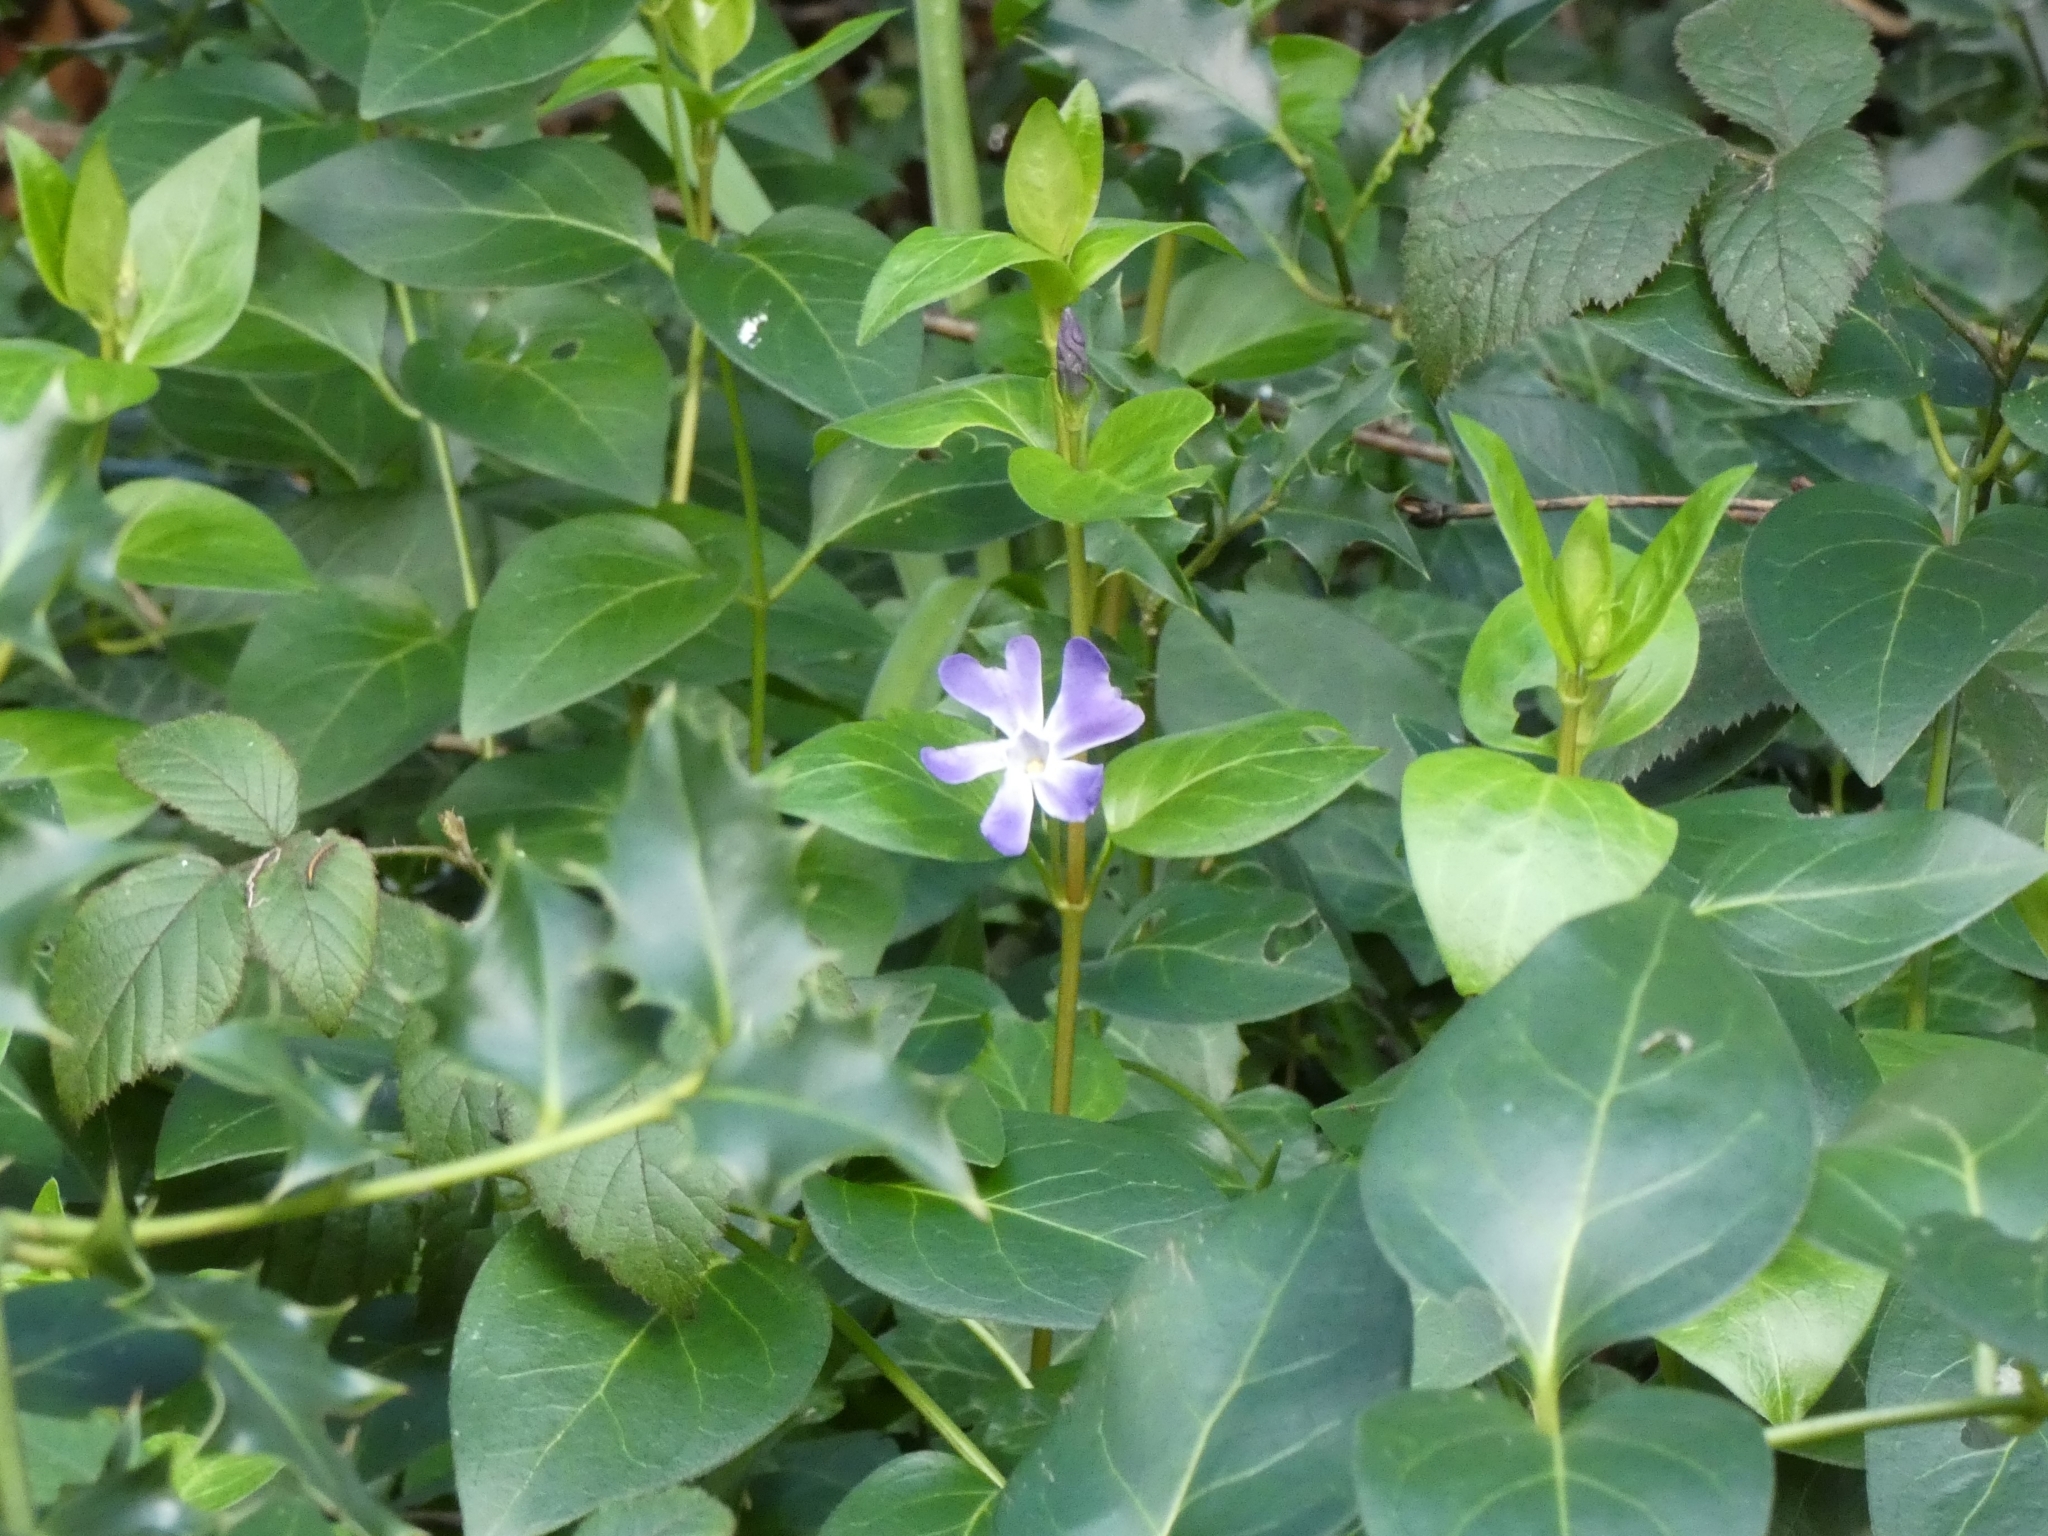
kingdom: Plantae
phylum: Tracheophyta
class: Magnoliopsida
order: Gentianales
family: Apocynaceae
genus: Vinca
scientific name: Vinca major
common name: Greater periwinkle
